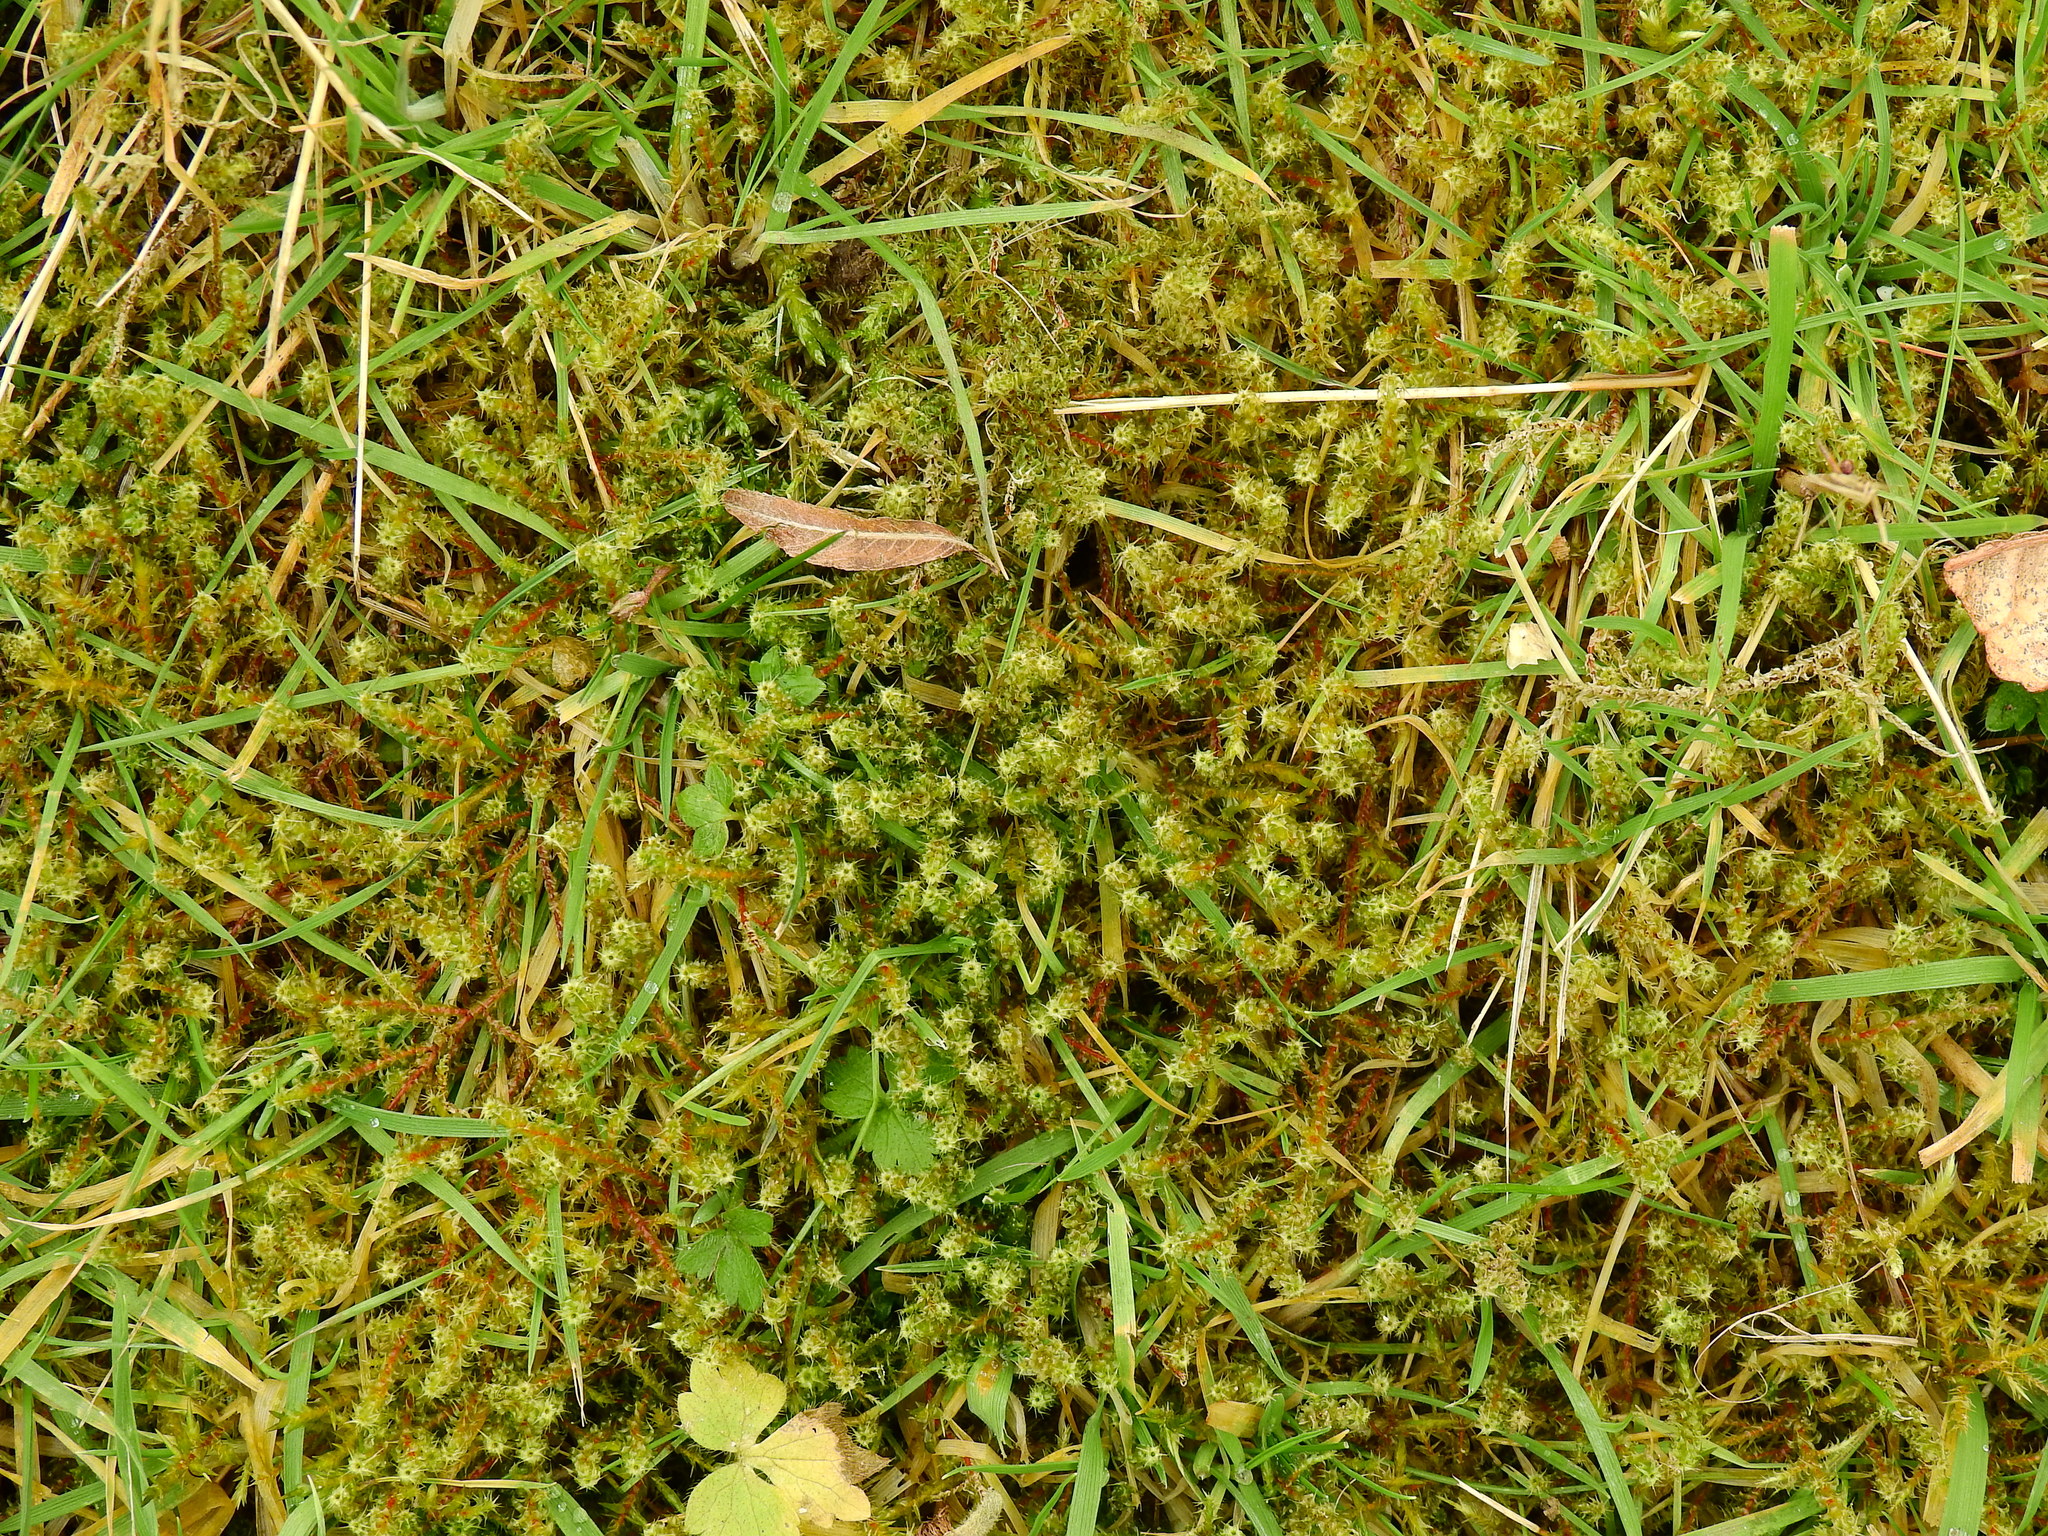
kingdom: Plantae
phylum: Bryophyta
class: Bryopsida
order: Hypnales
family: Hylocomiaceae
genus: Rhytidiadelphus
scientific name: Rhytidiadelphus squarrosus
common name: Springy turf-moss
